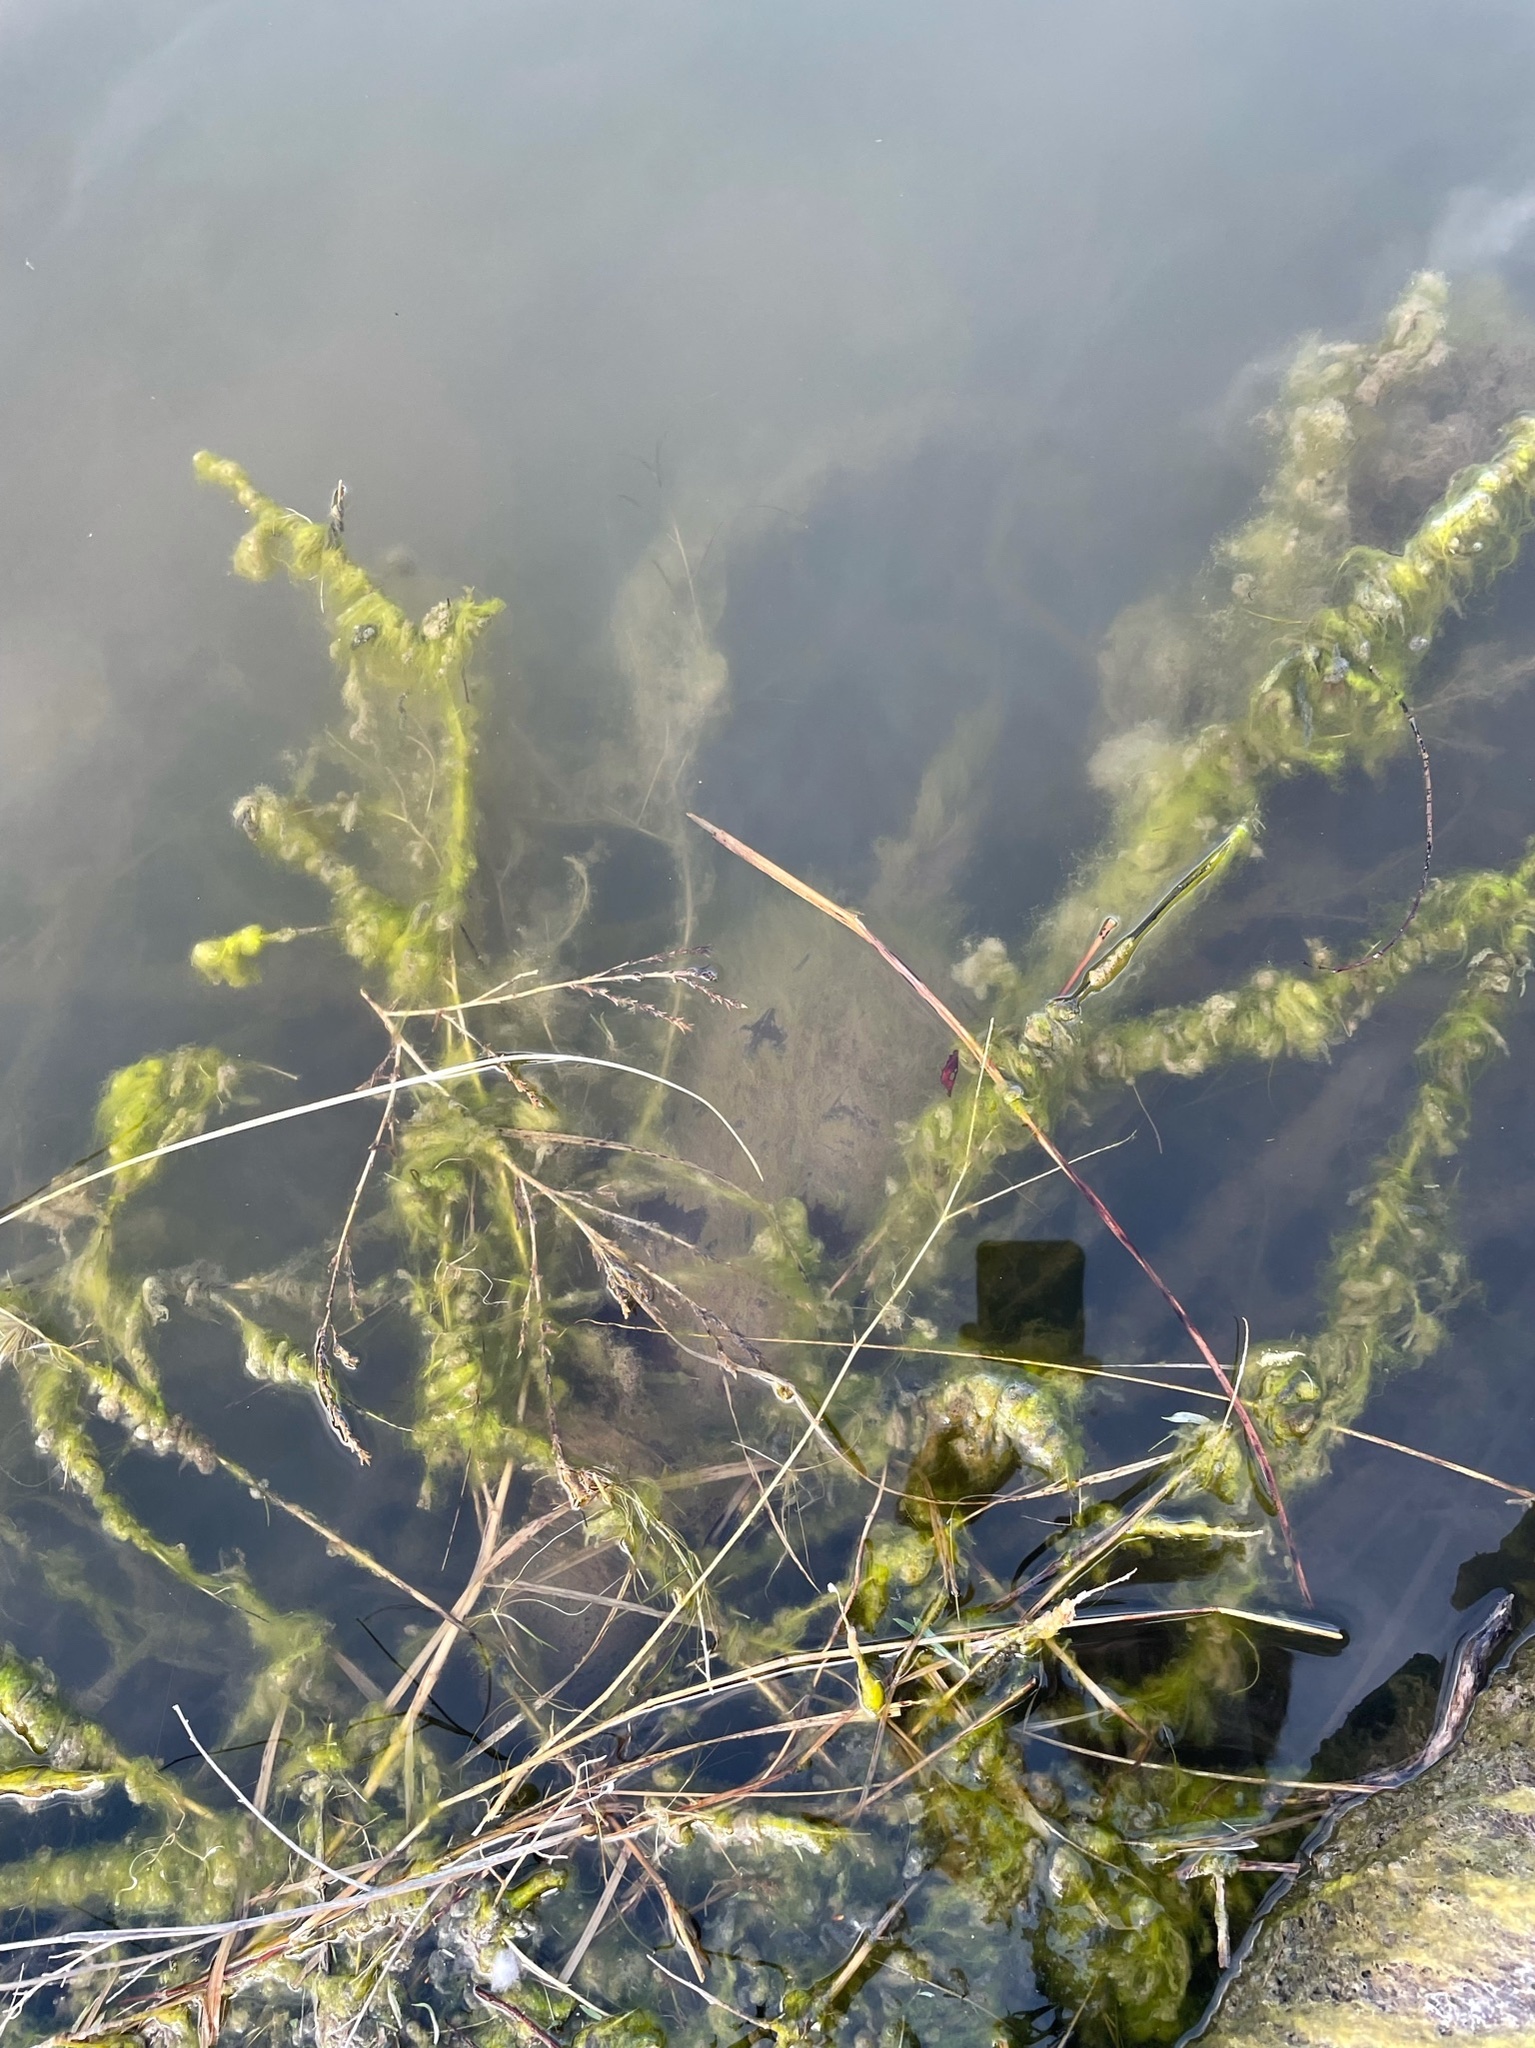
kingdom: Animalia
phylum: Chordata
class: Testudines
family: Chelydridae
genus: Chelydra
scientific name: Chelydra serpentina
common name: Common snapping turtle
